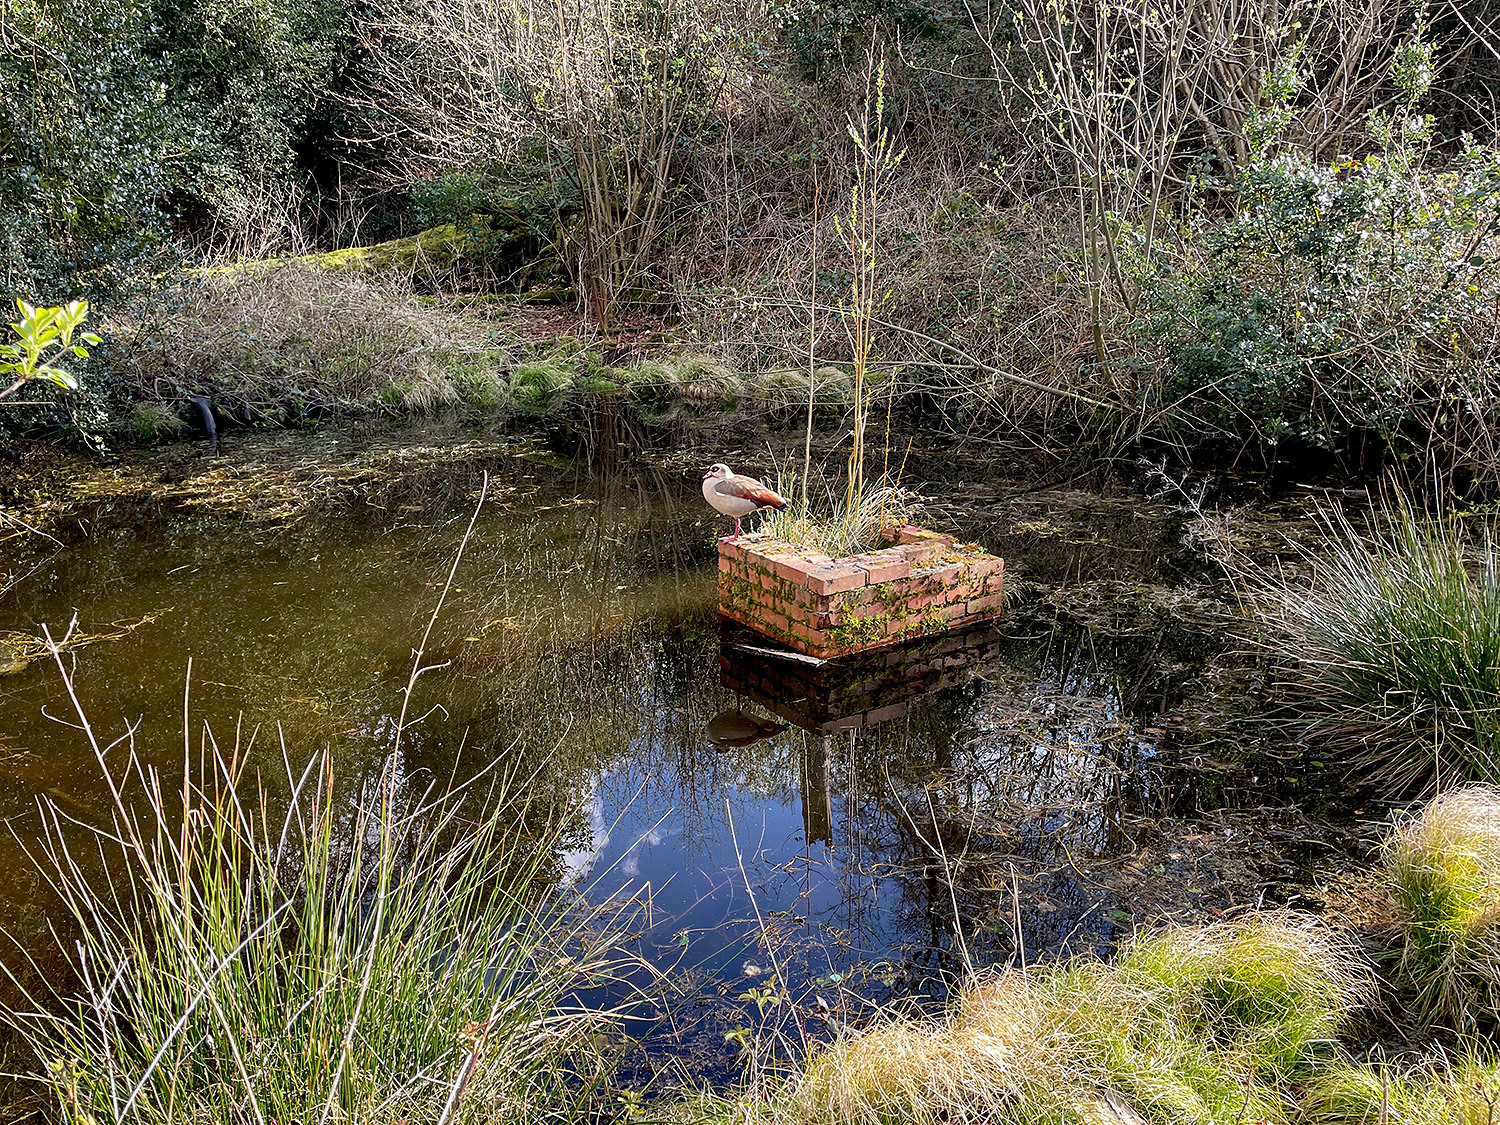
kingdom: Animalia
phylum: Chordata
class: Aves
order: Anseriformes
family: Anatidae
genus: Alopochen
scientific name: Alopochen aegyptiaca
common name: Egyptian goose
